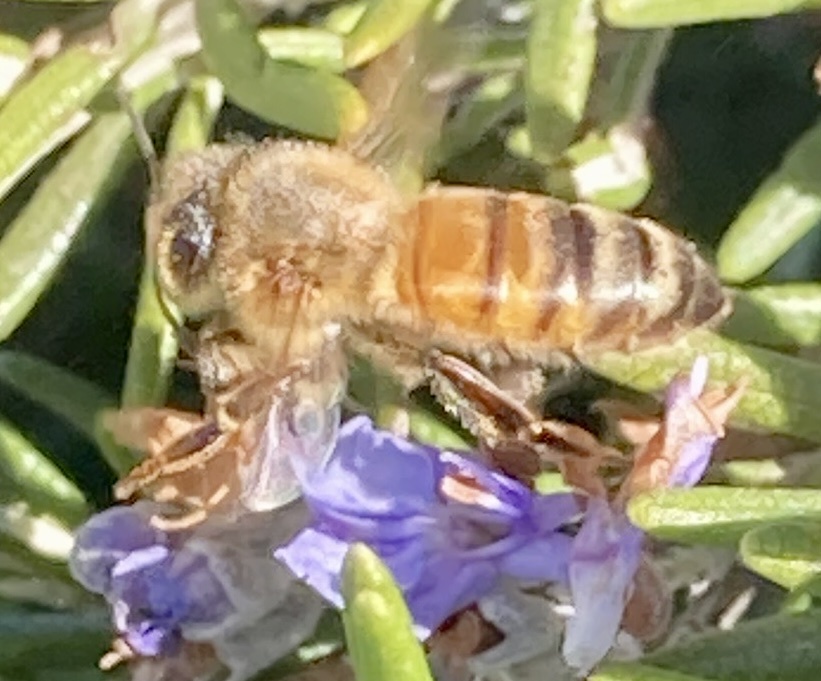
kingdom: Animalia
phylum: Arthropoda
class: Insecta
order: Hymenoptera
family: Apidae
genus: Apis
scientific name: Apis mellifera
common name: Honey bee
